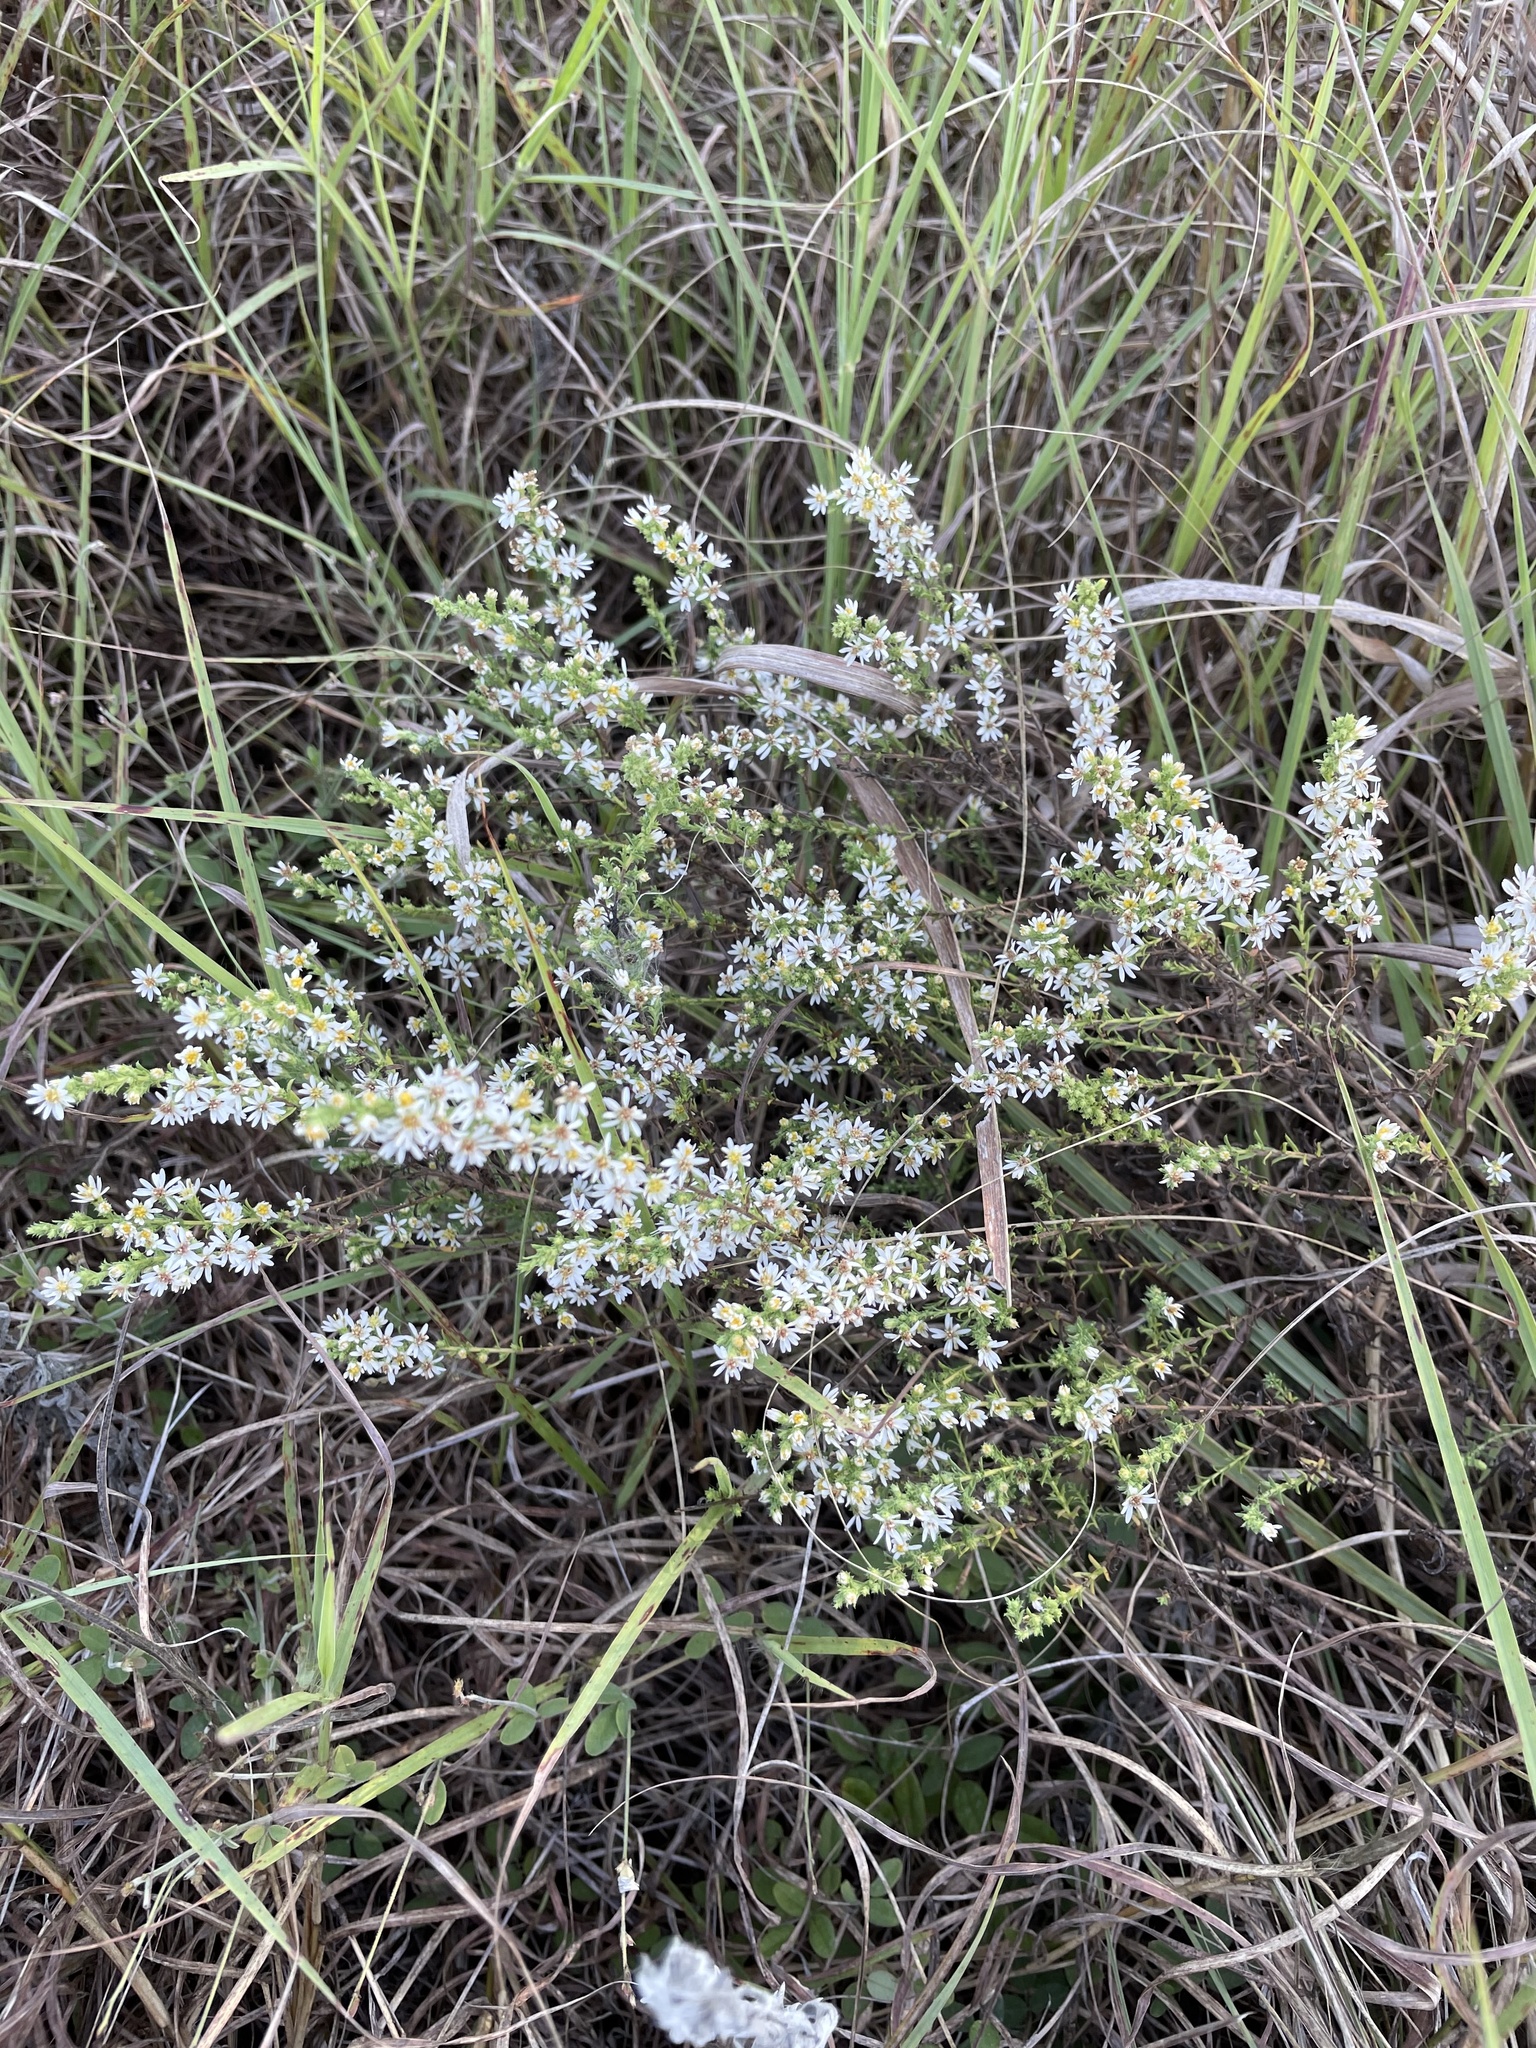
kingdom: Plantae
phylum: Tracheophyta
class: Magnoliopsida
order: Asterales
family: Asteraceae
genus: Symphyotrichum
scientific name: Symphyotrichum ericoides
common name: Heath aster
